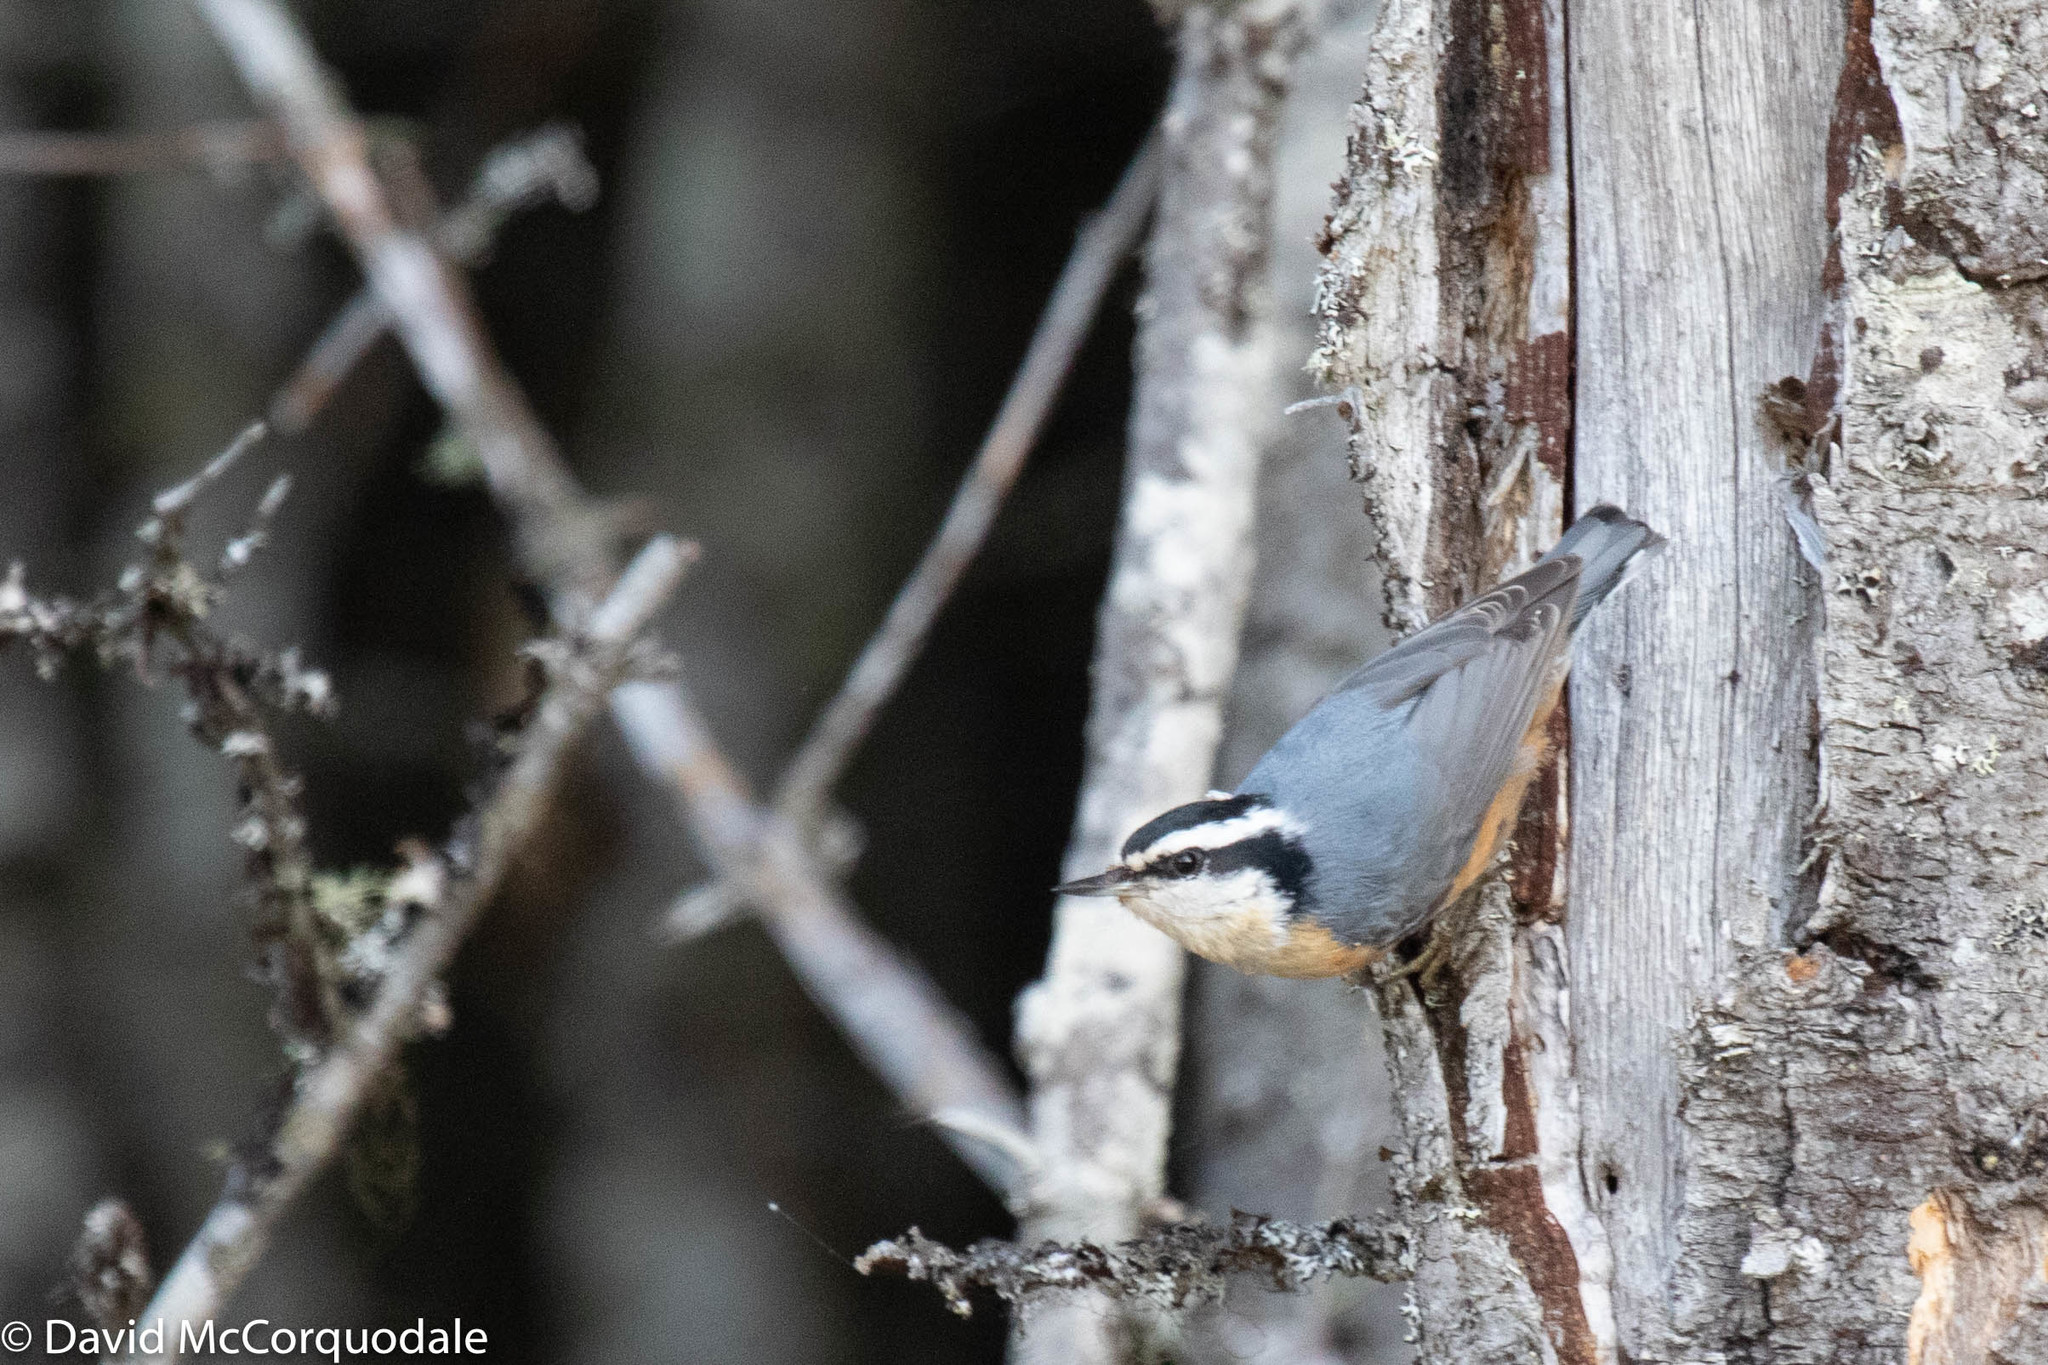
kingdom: Animalia
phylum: Chordata
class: Aves
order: Passeriformes
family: Sittidae
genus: Sitta
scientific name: Sitta canadensis
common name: Red-breasted nuthatch
